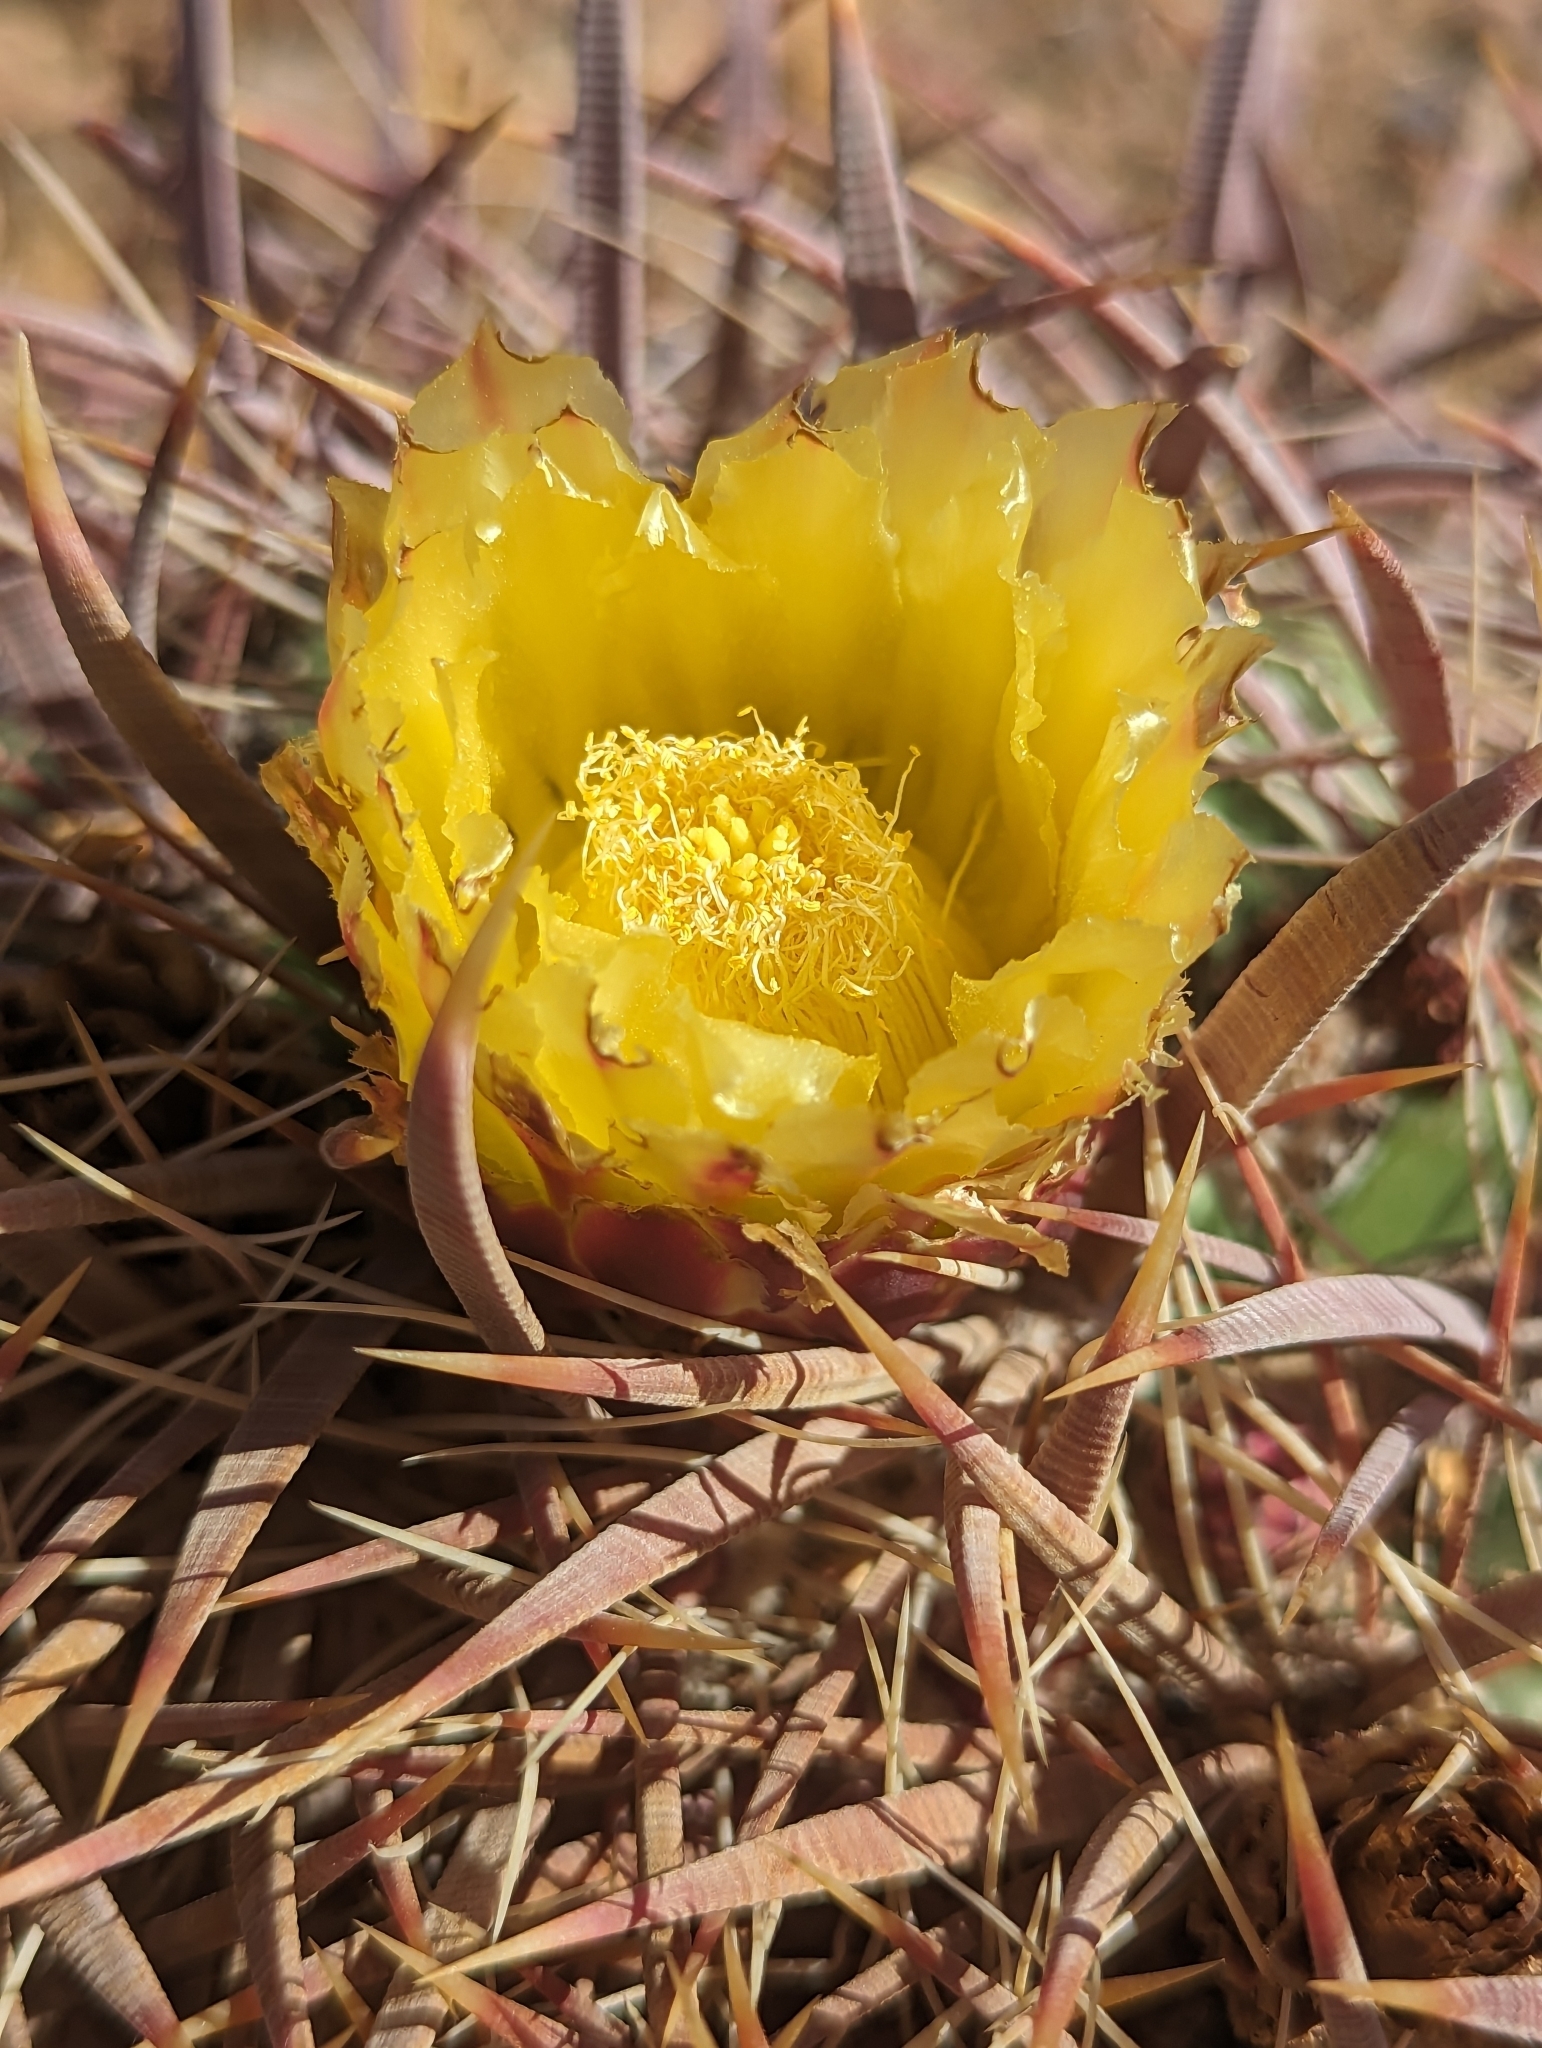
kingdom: Plantae
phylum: Tracheophyta
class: Magnoliopsida
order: Caryophyllales
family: Cactaceae
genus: Ferocactus
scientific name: Ferocactus cylindraceus
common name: California barrel cactus
